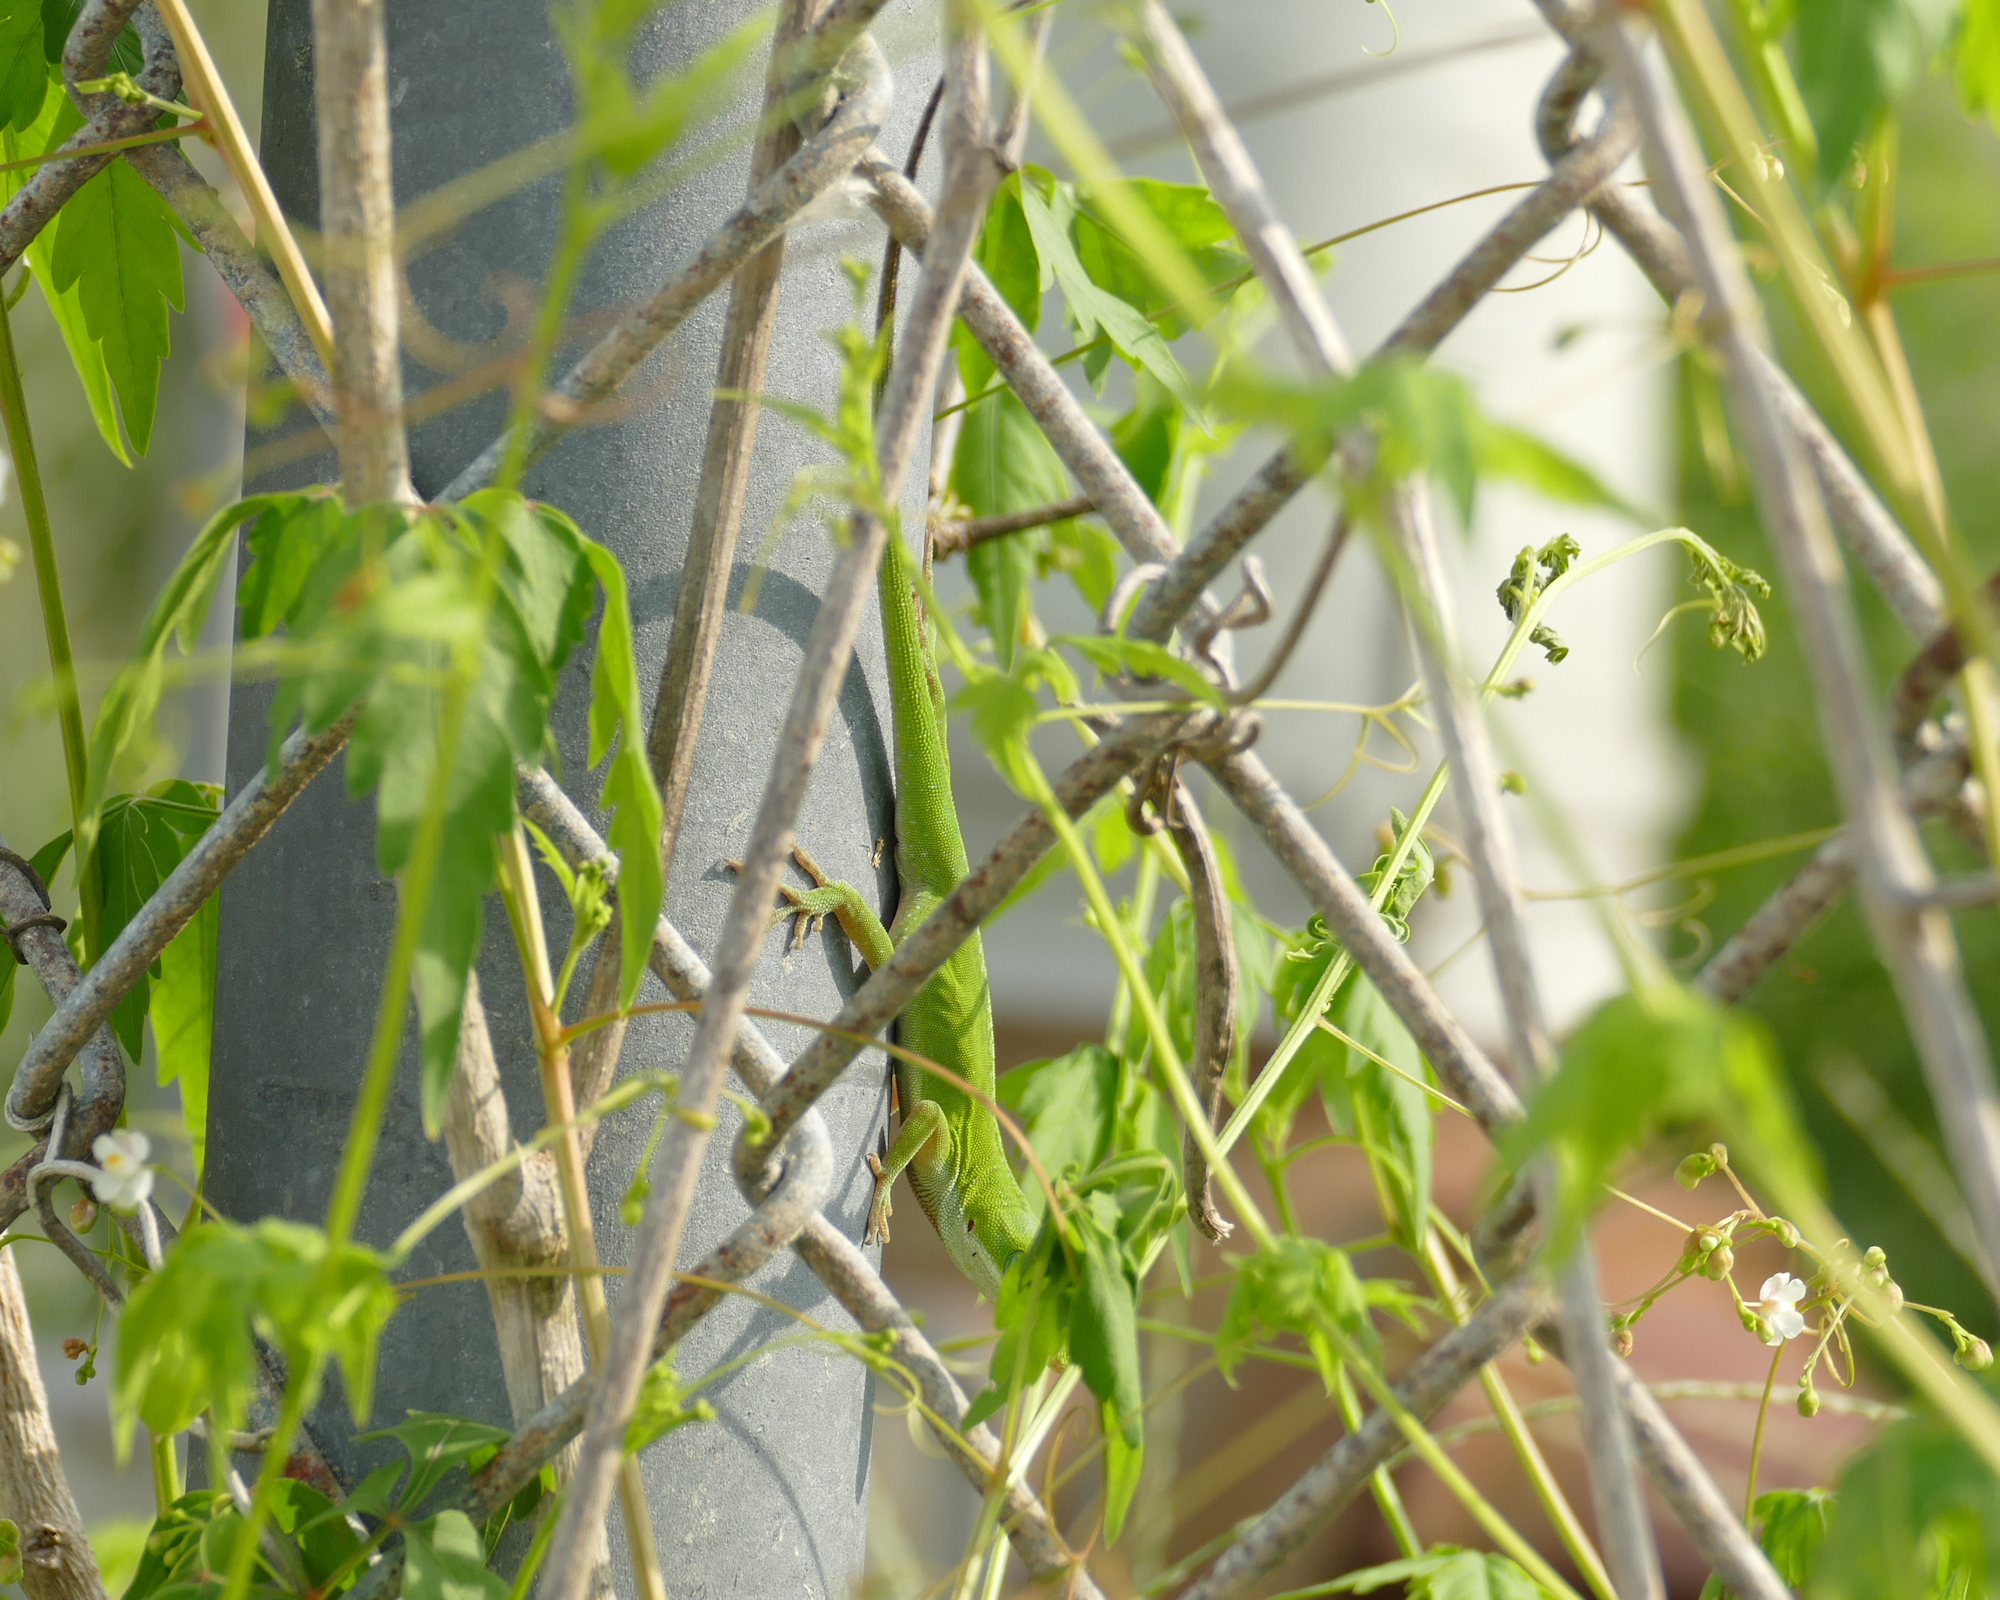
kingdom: Animalia
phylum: Chordata
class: Squamata
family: Dactyloidae
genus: Anolis
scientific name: Anolis carolinensis
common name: Green anole
